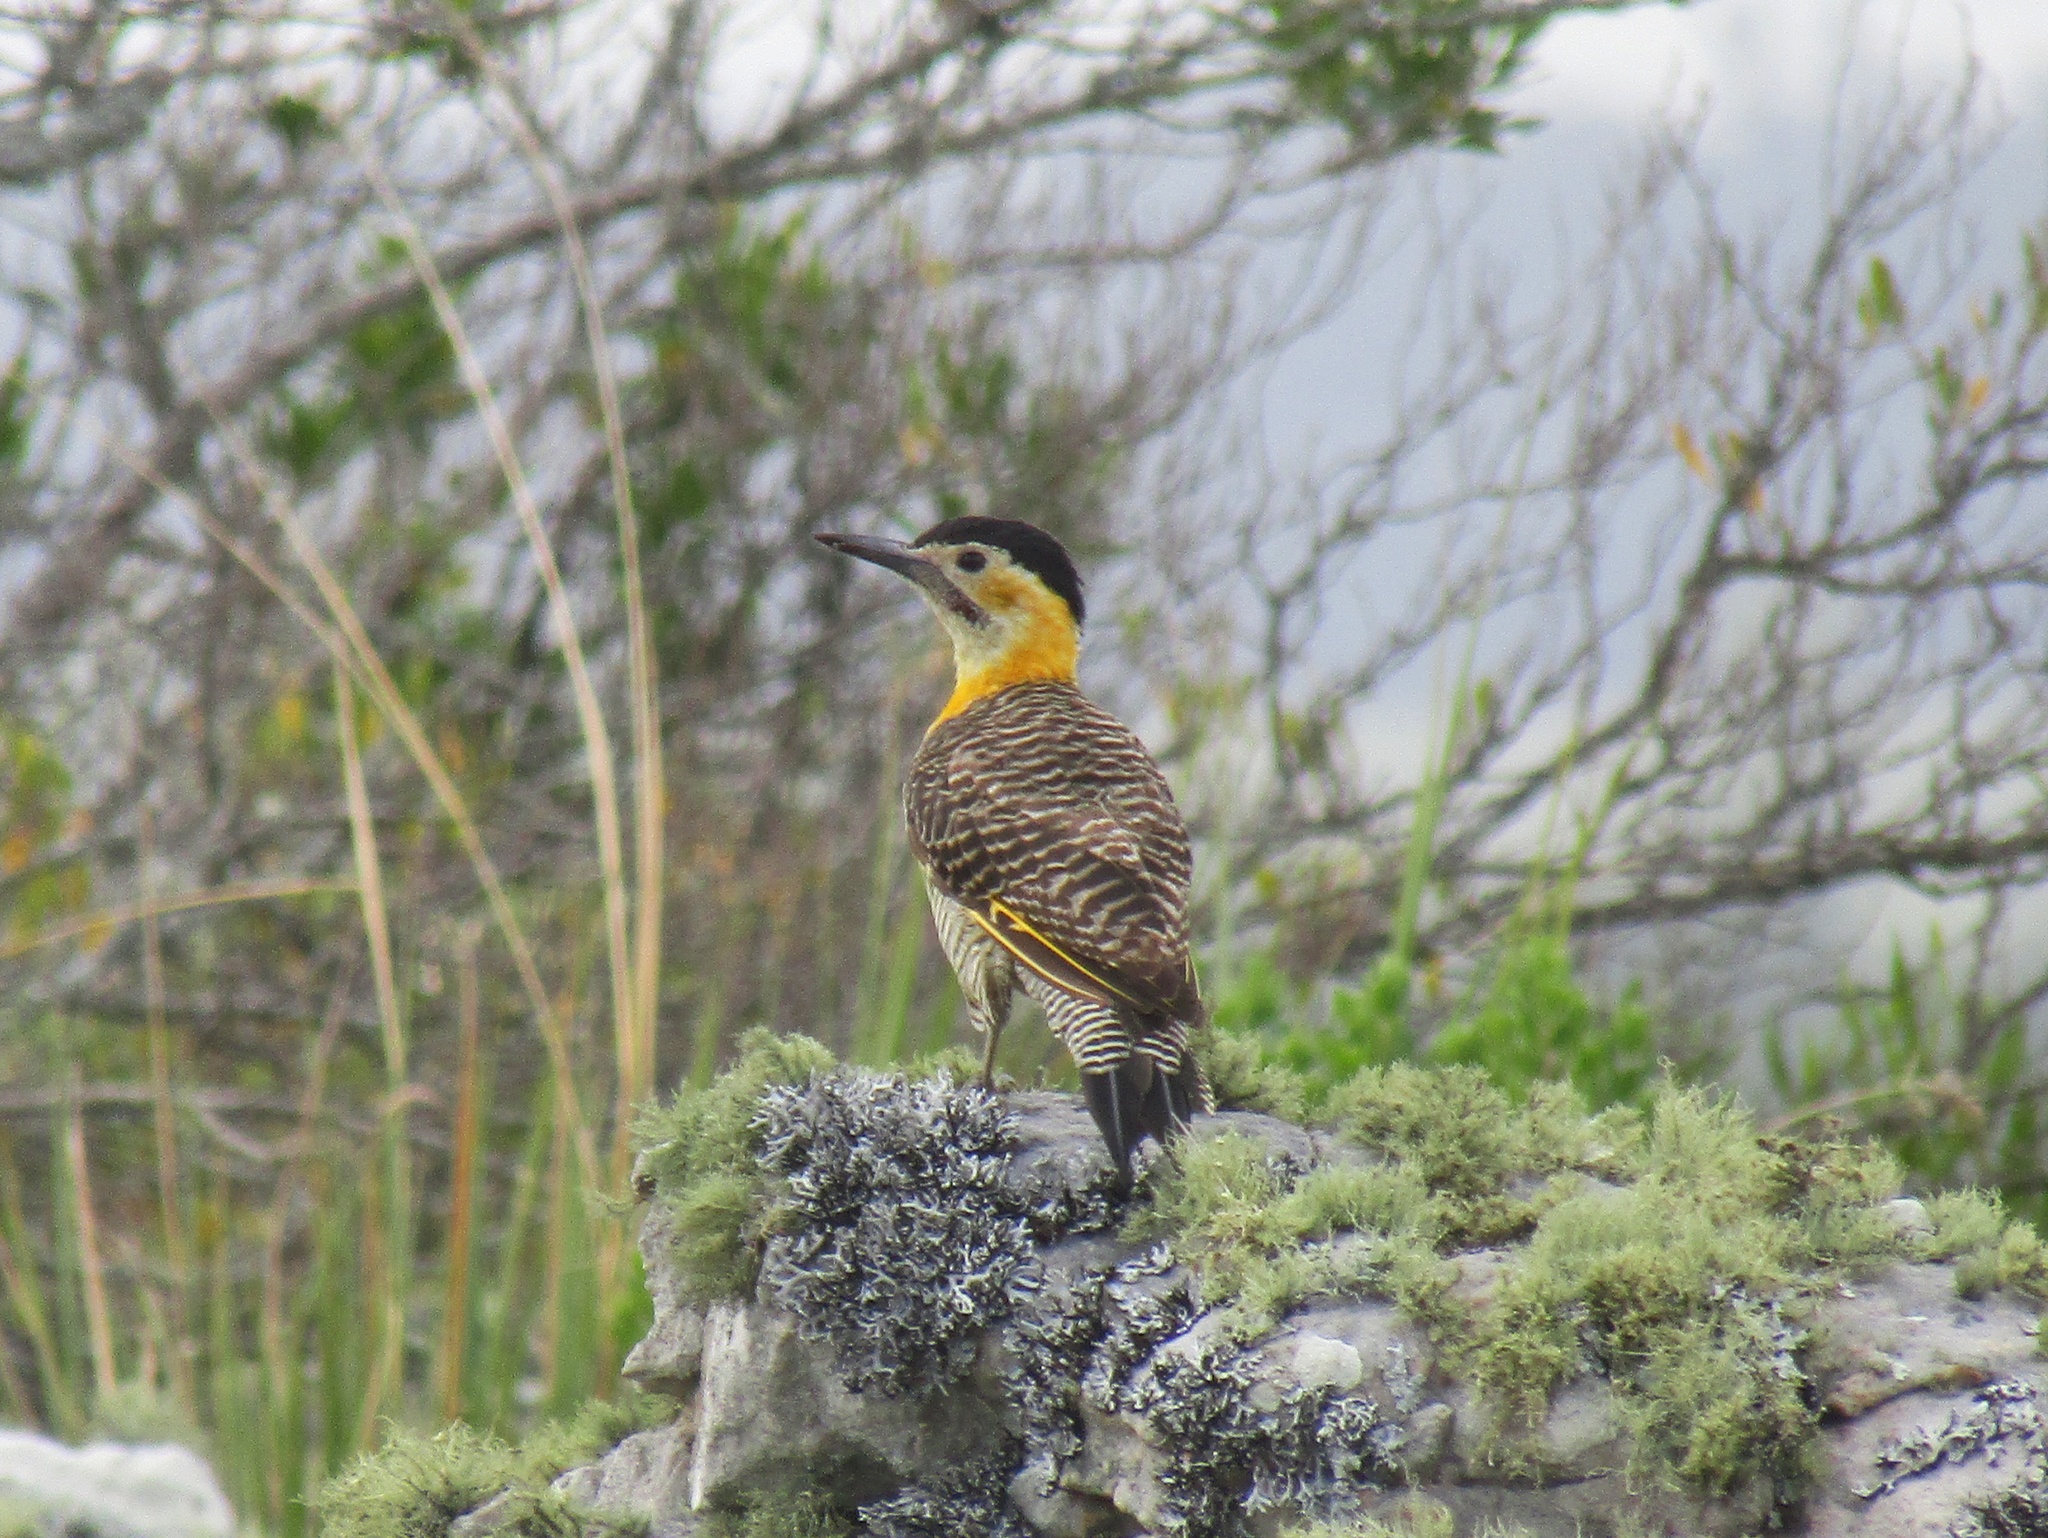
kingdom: Animalia
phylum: Chordata
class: Aves
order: Piciformes
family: Picidae
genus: Colaptes
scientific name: Colaptes campestris
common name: Campo flicker
